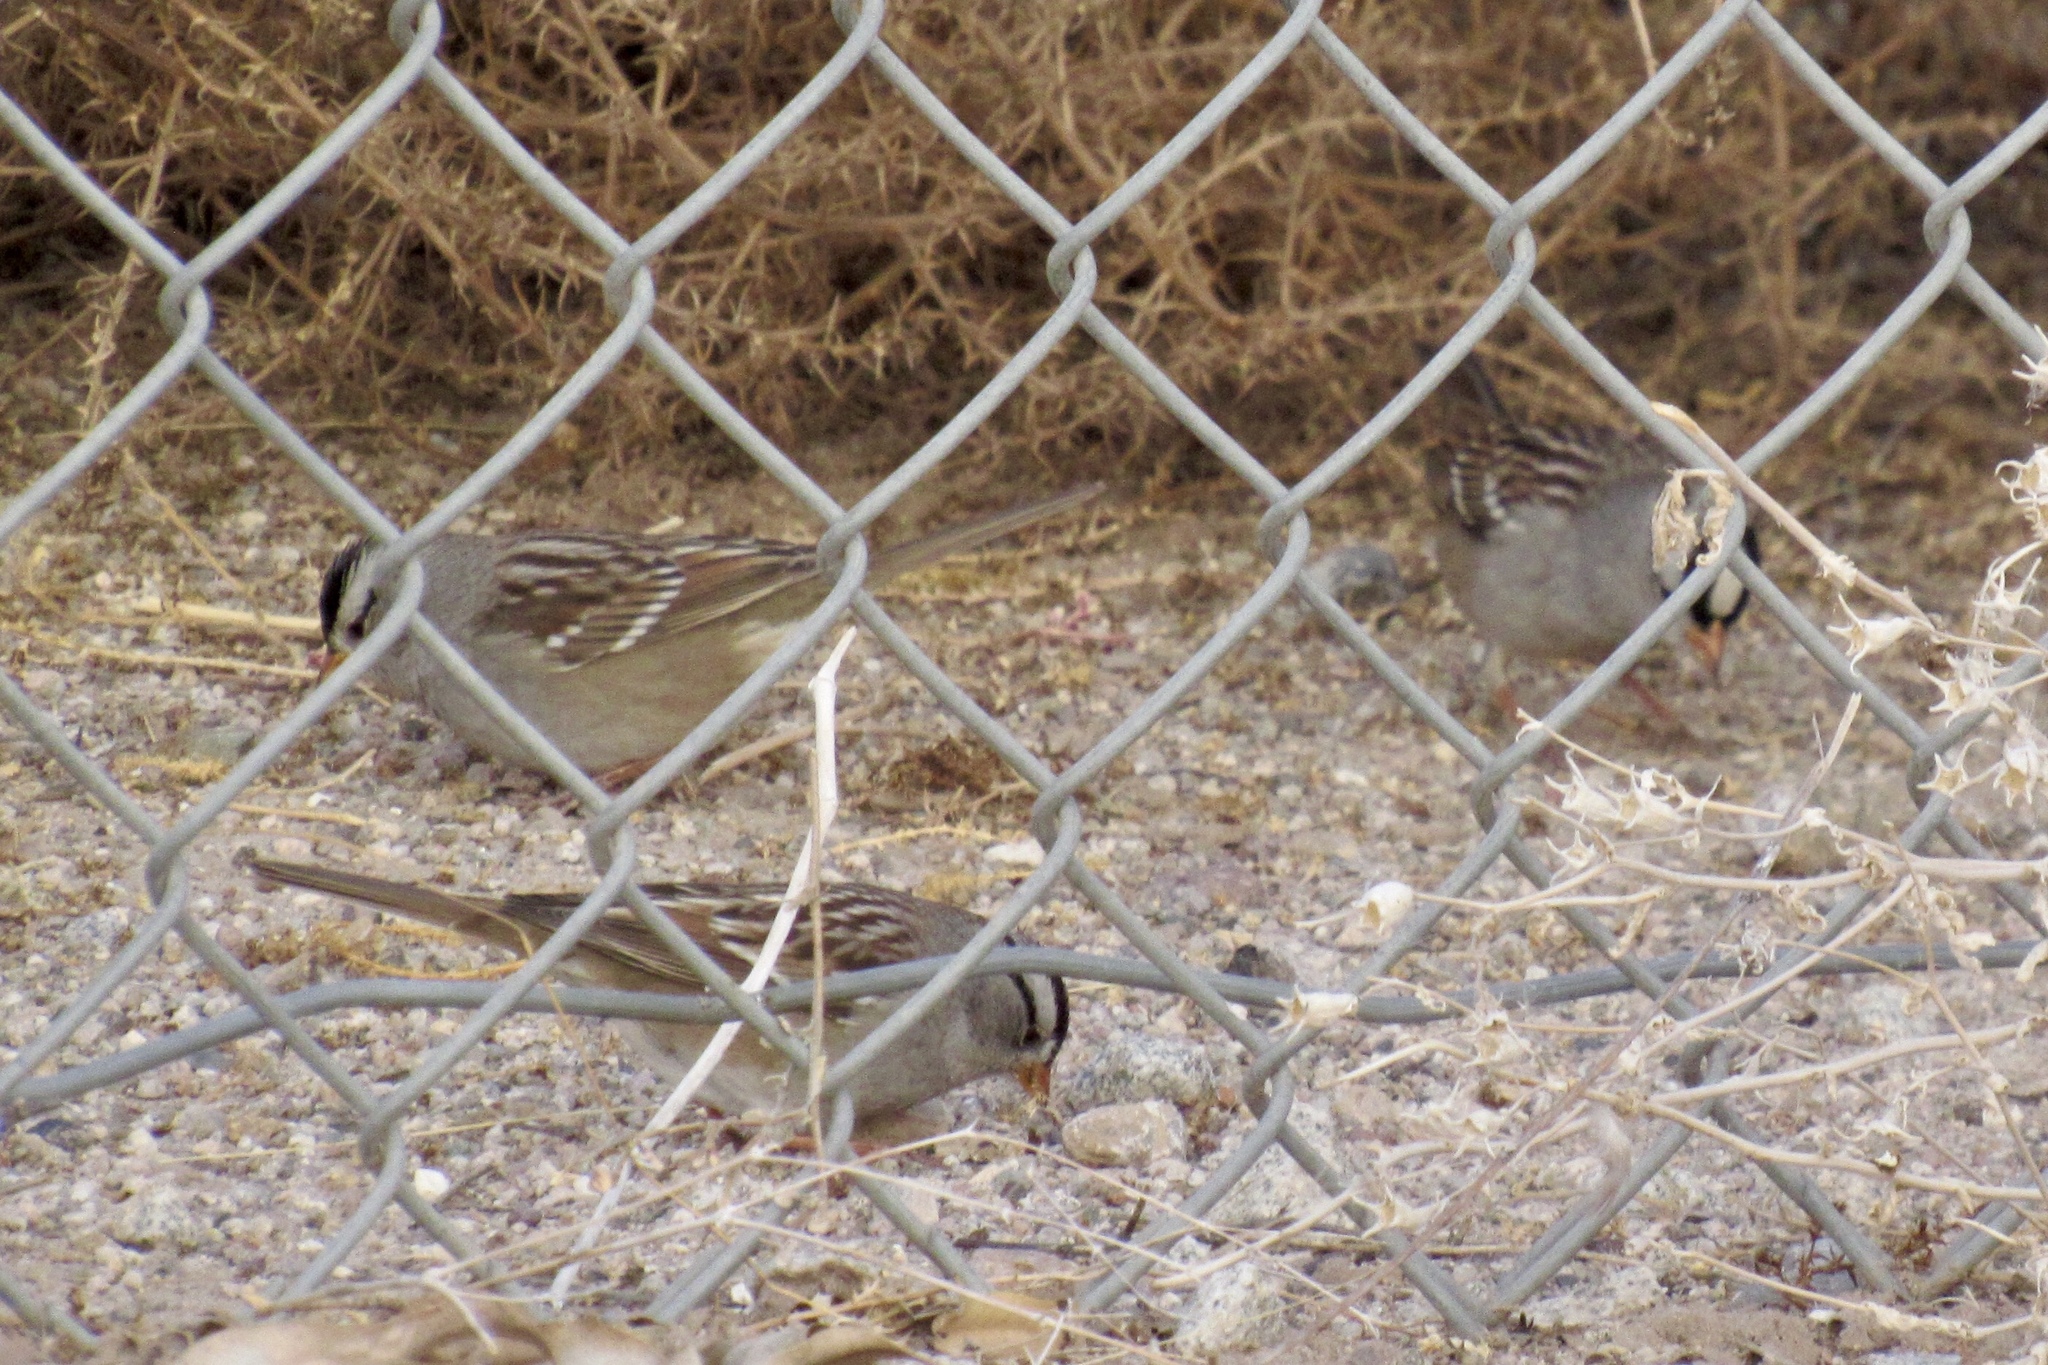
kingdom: Animalia
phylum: Chordata
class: Aves
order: Passeriformes
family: Passerellidae
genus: Zonotrichia
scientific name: Zonotrichia leucophrys
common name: White-crowned sparrow
